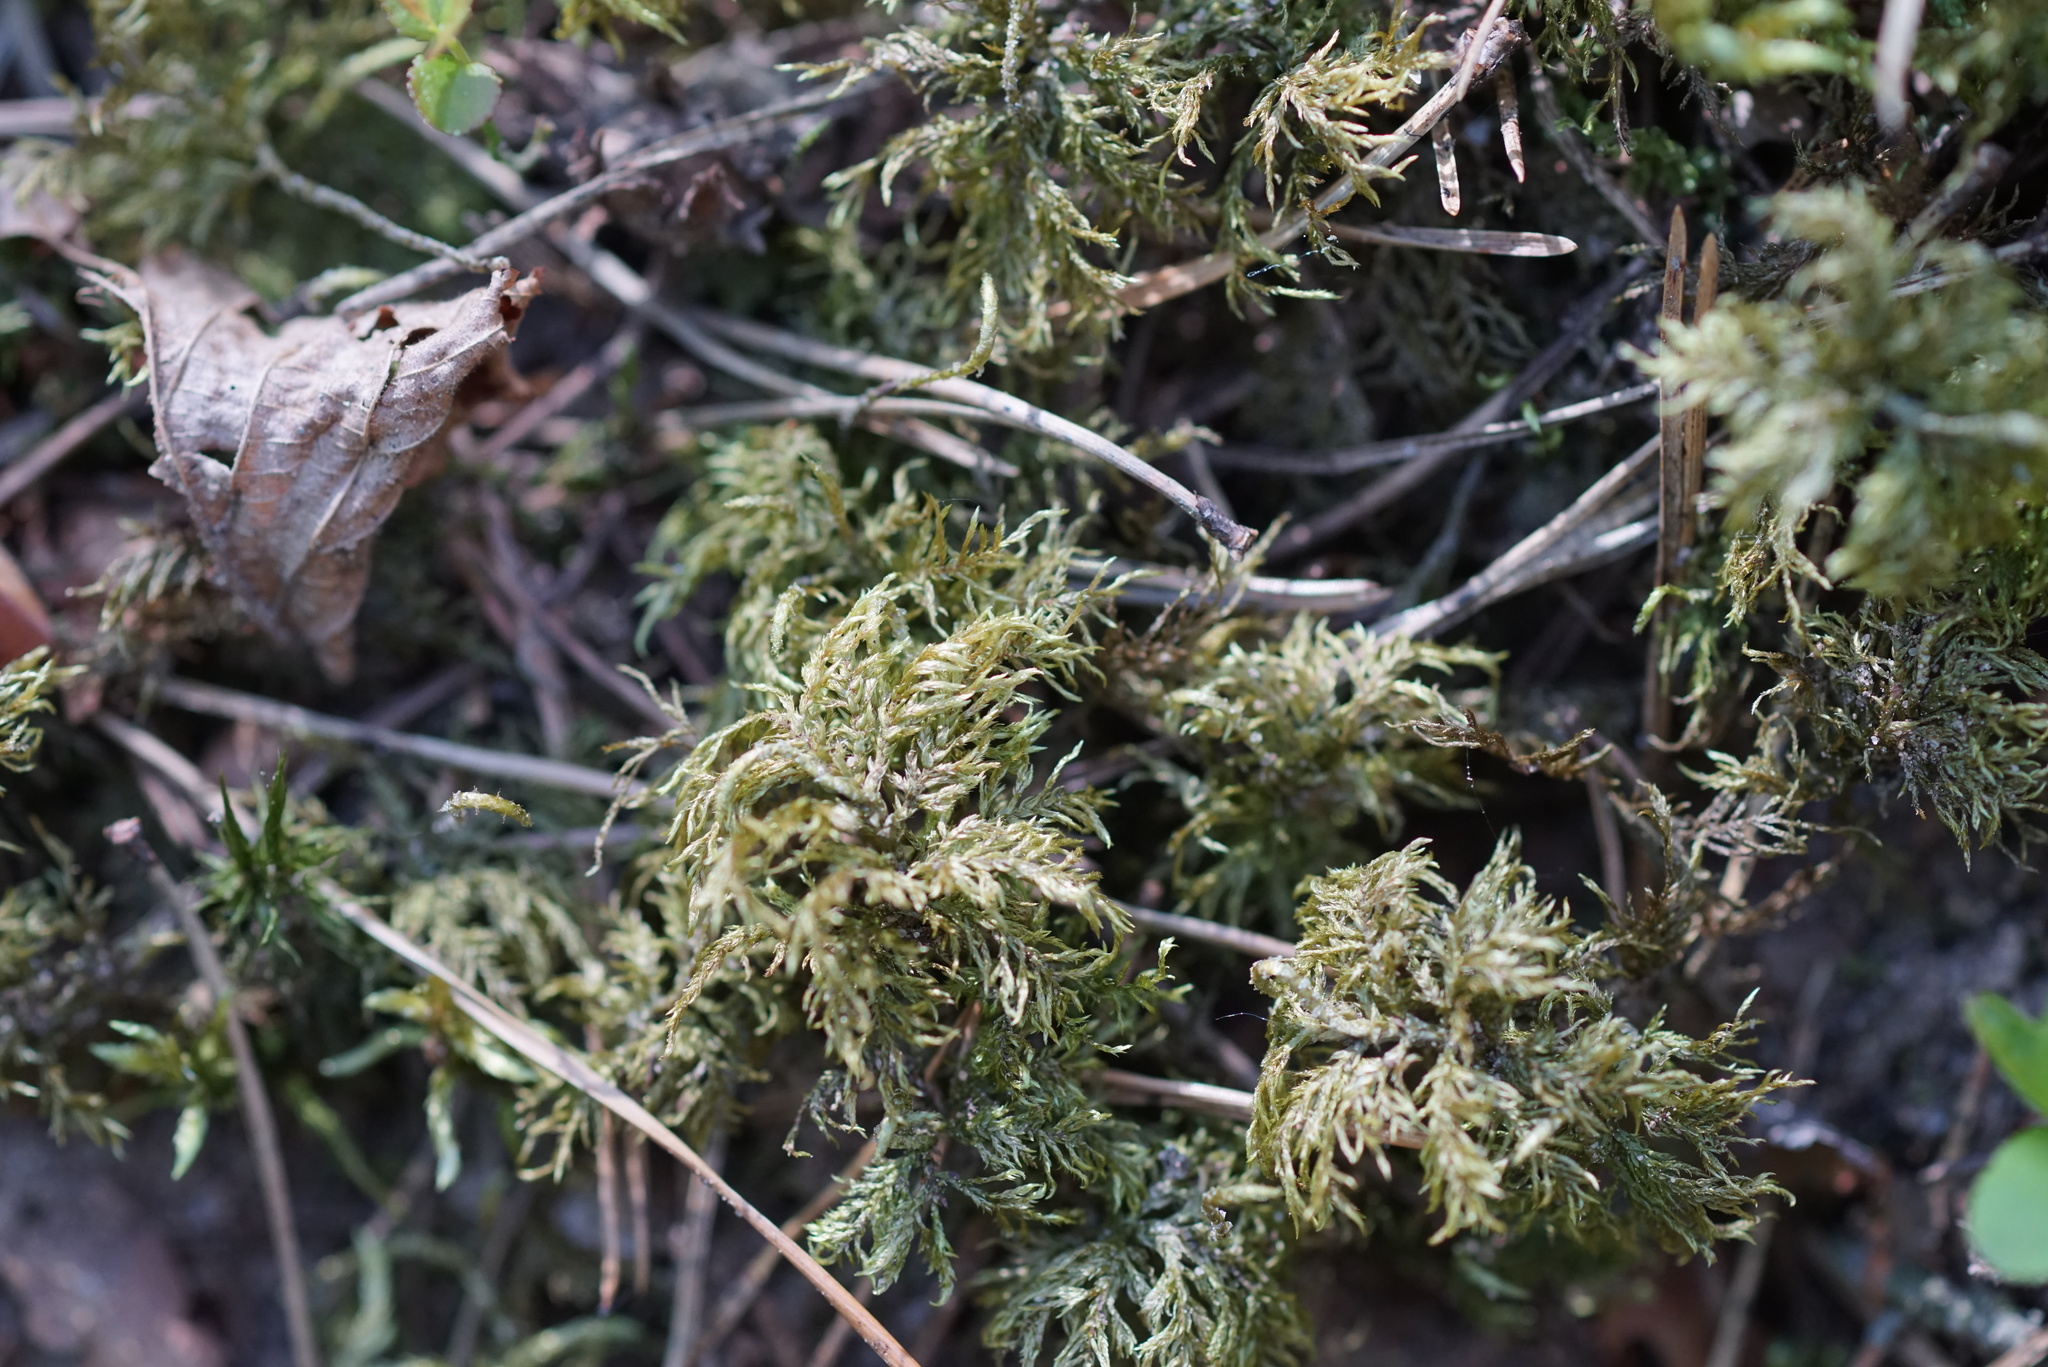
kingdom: Plantae
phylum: Bryophyta
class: Bryopsida
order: Hypnales
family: Hylocomiaceae
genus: Hylocomium
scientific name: Hylocomium splendens
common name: Stairstep moss
